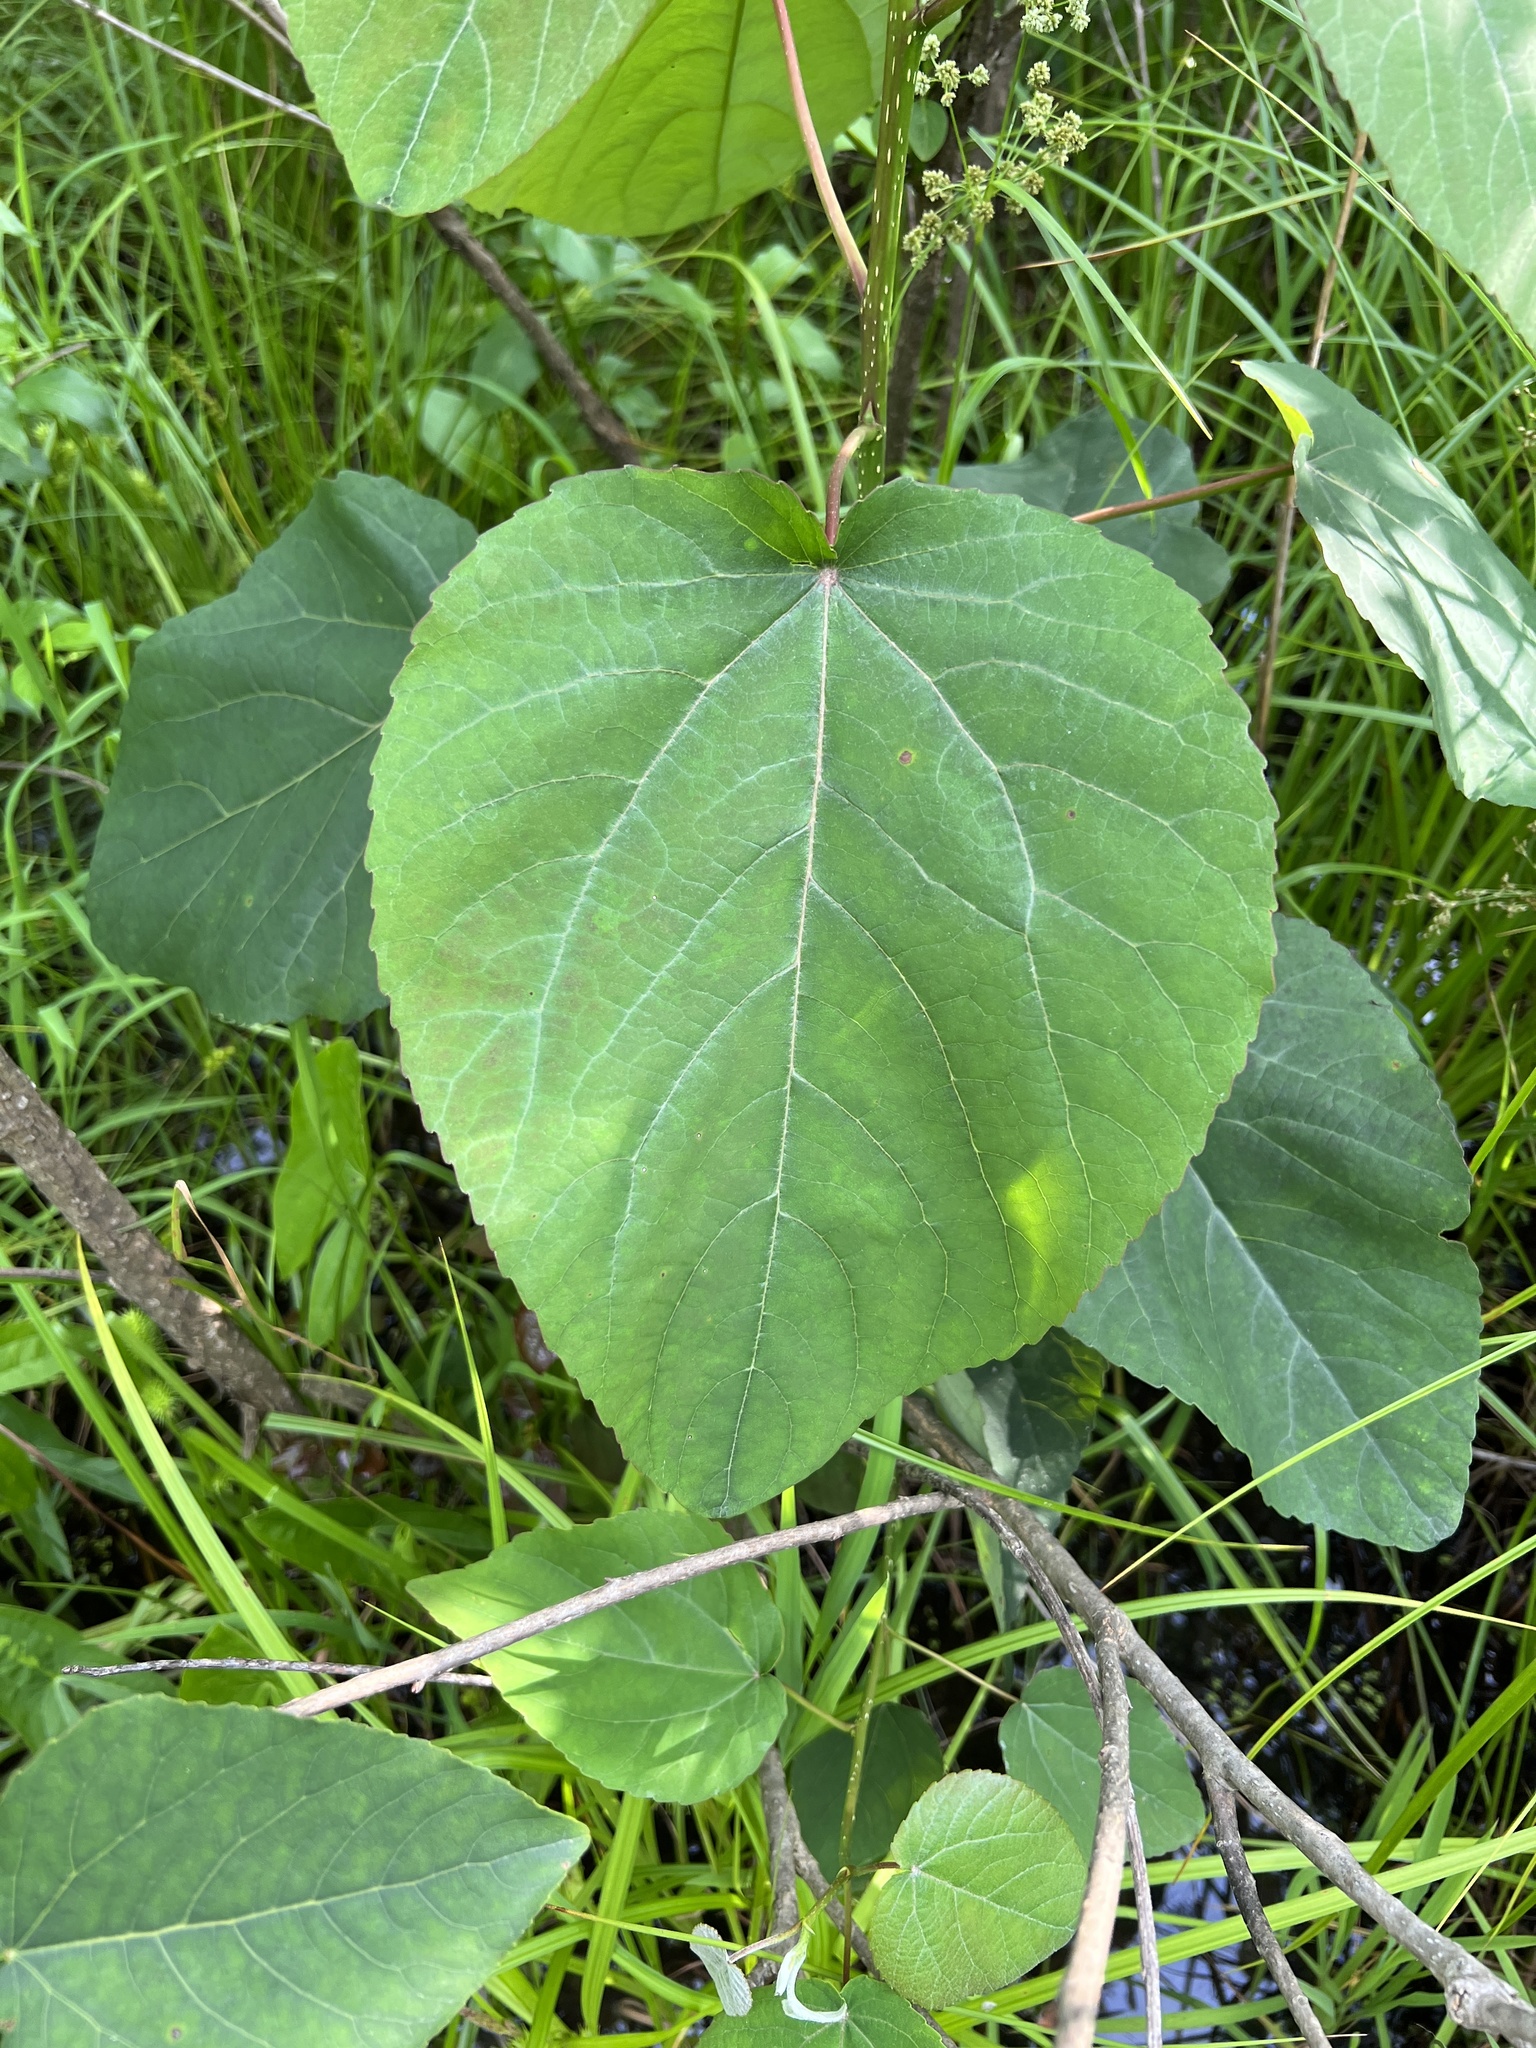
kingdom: Plantae
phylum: Tracheophyta
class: Magnoliopsida
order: Malpighiales
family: Salicaceae
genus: Populus
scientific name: Populus heterophylla
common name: Downy poplar
